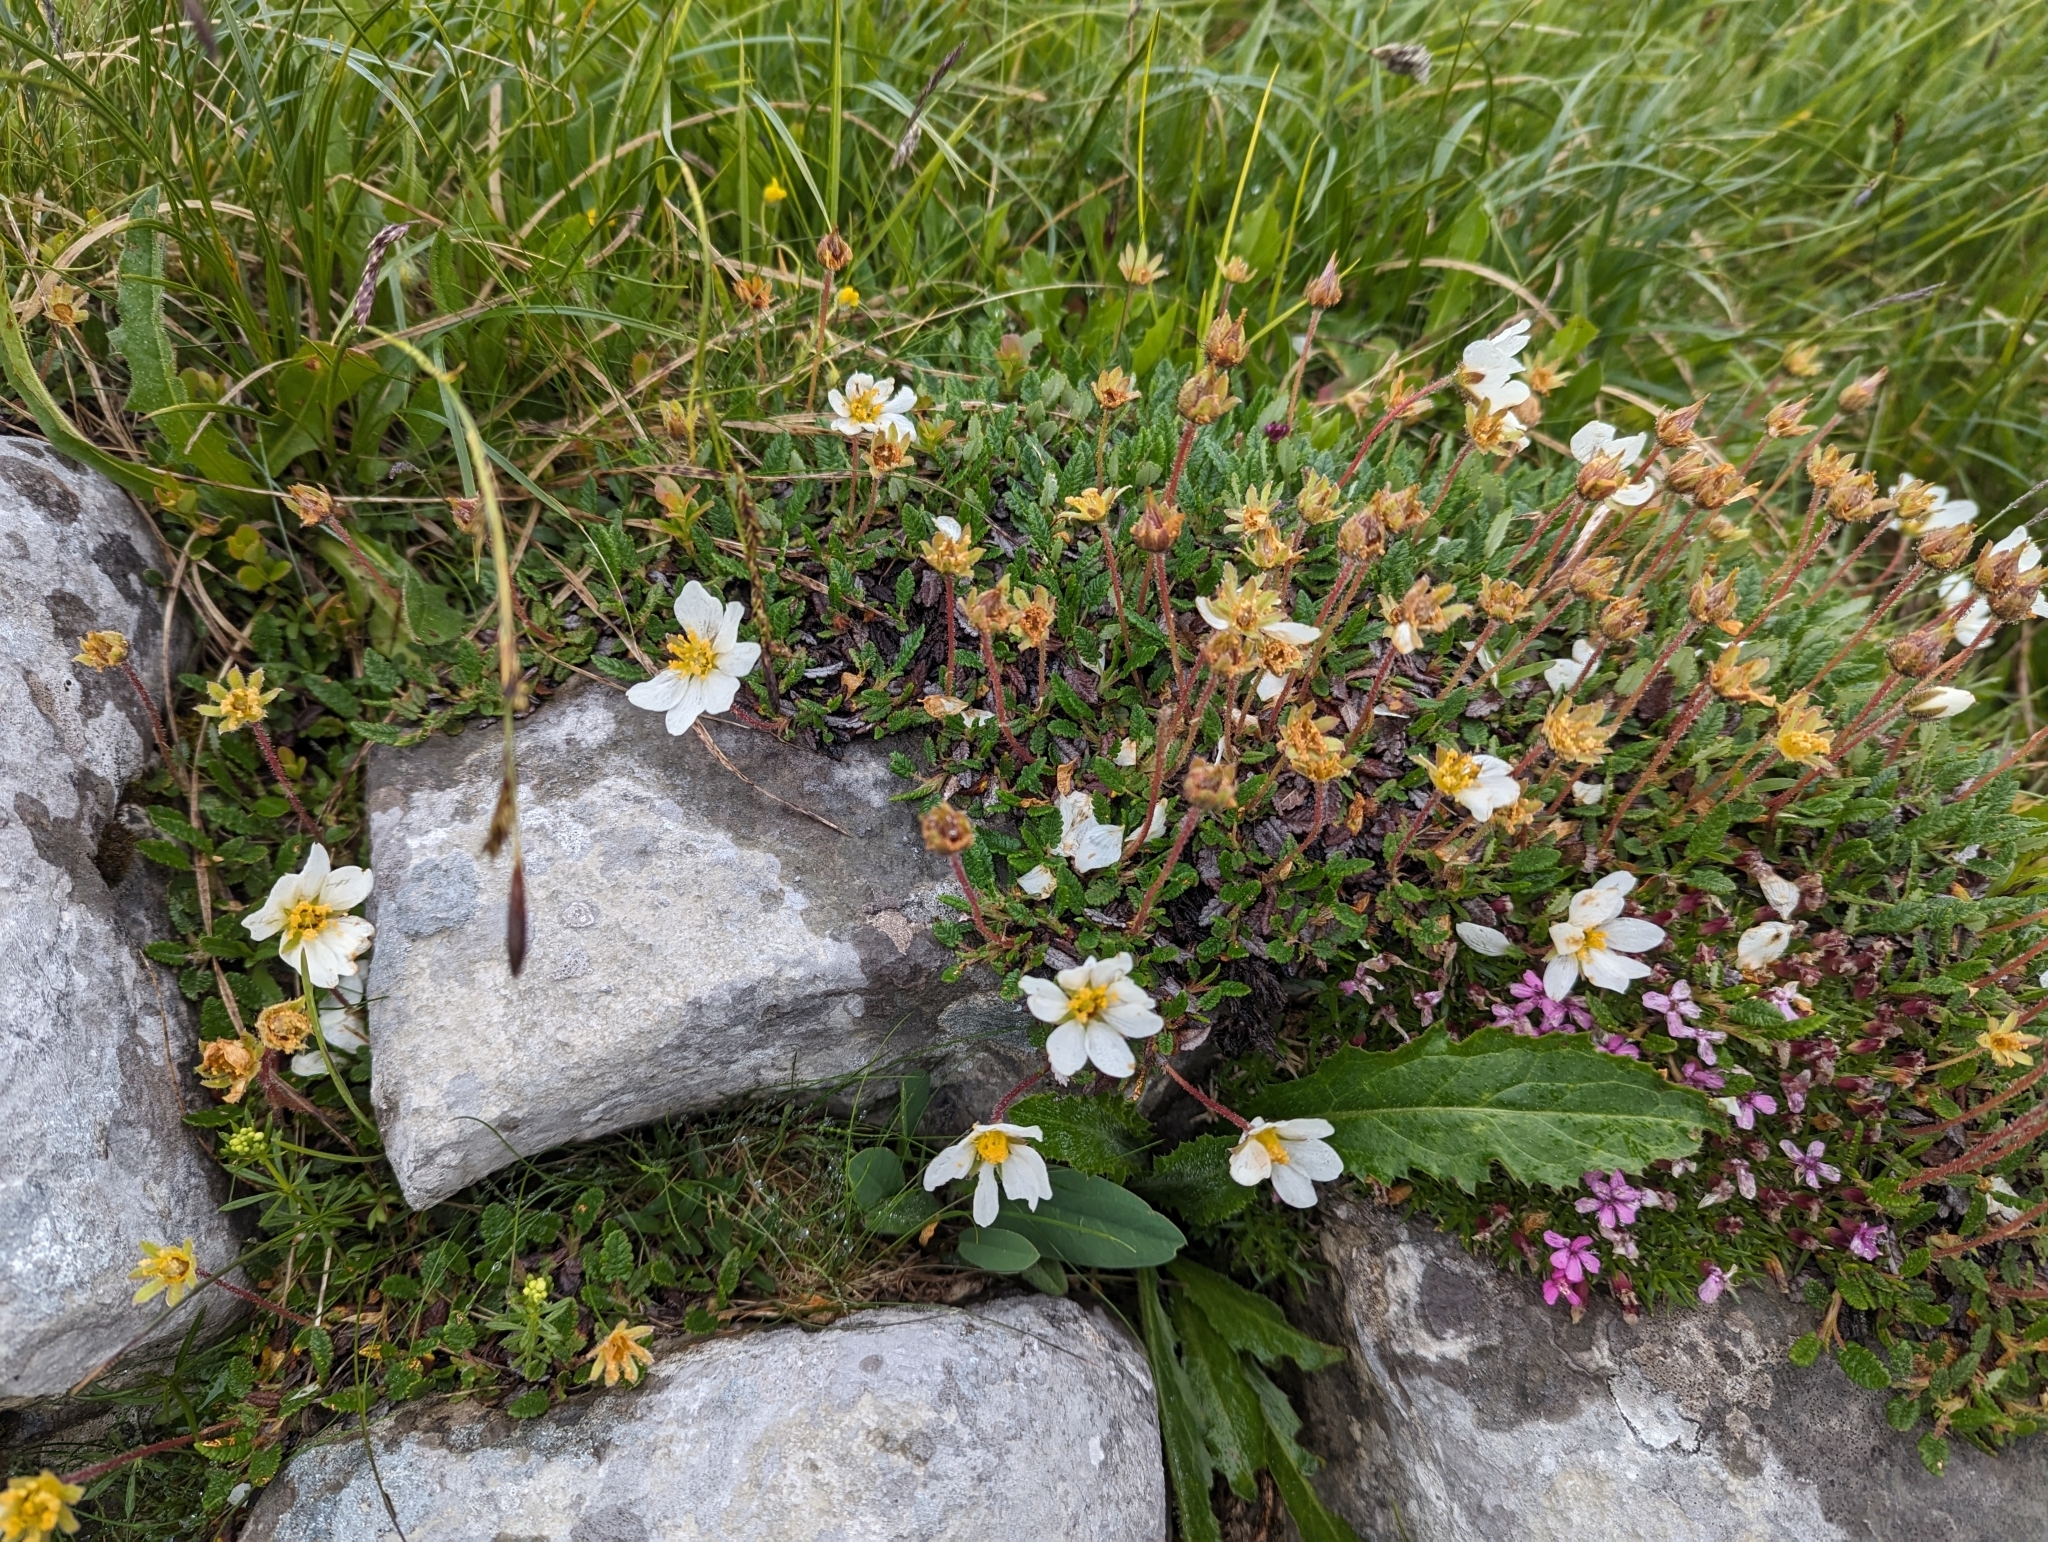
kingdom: Plantae
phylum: Tracheophyta
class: Magnoliopsida
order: Rosales
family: Rosaceae
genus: Dryas
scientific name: Dryas octopetala
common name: Eight-petal mountain-avens
